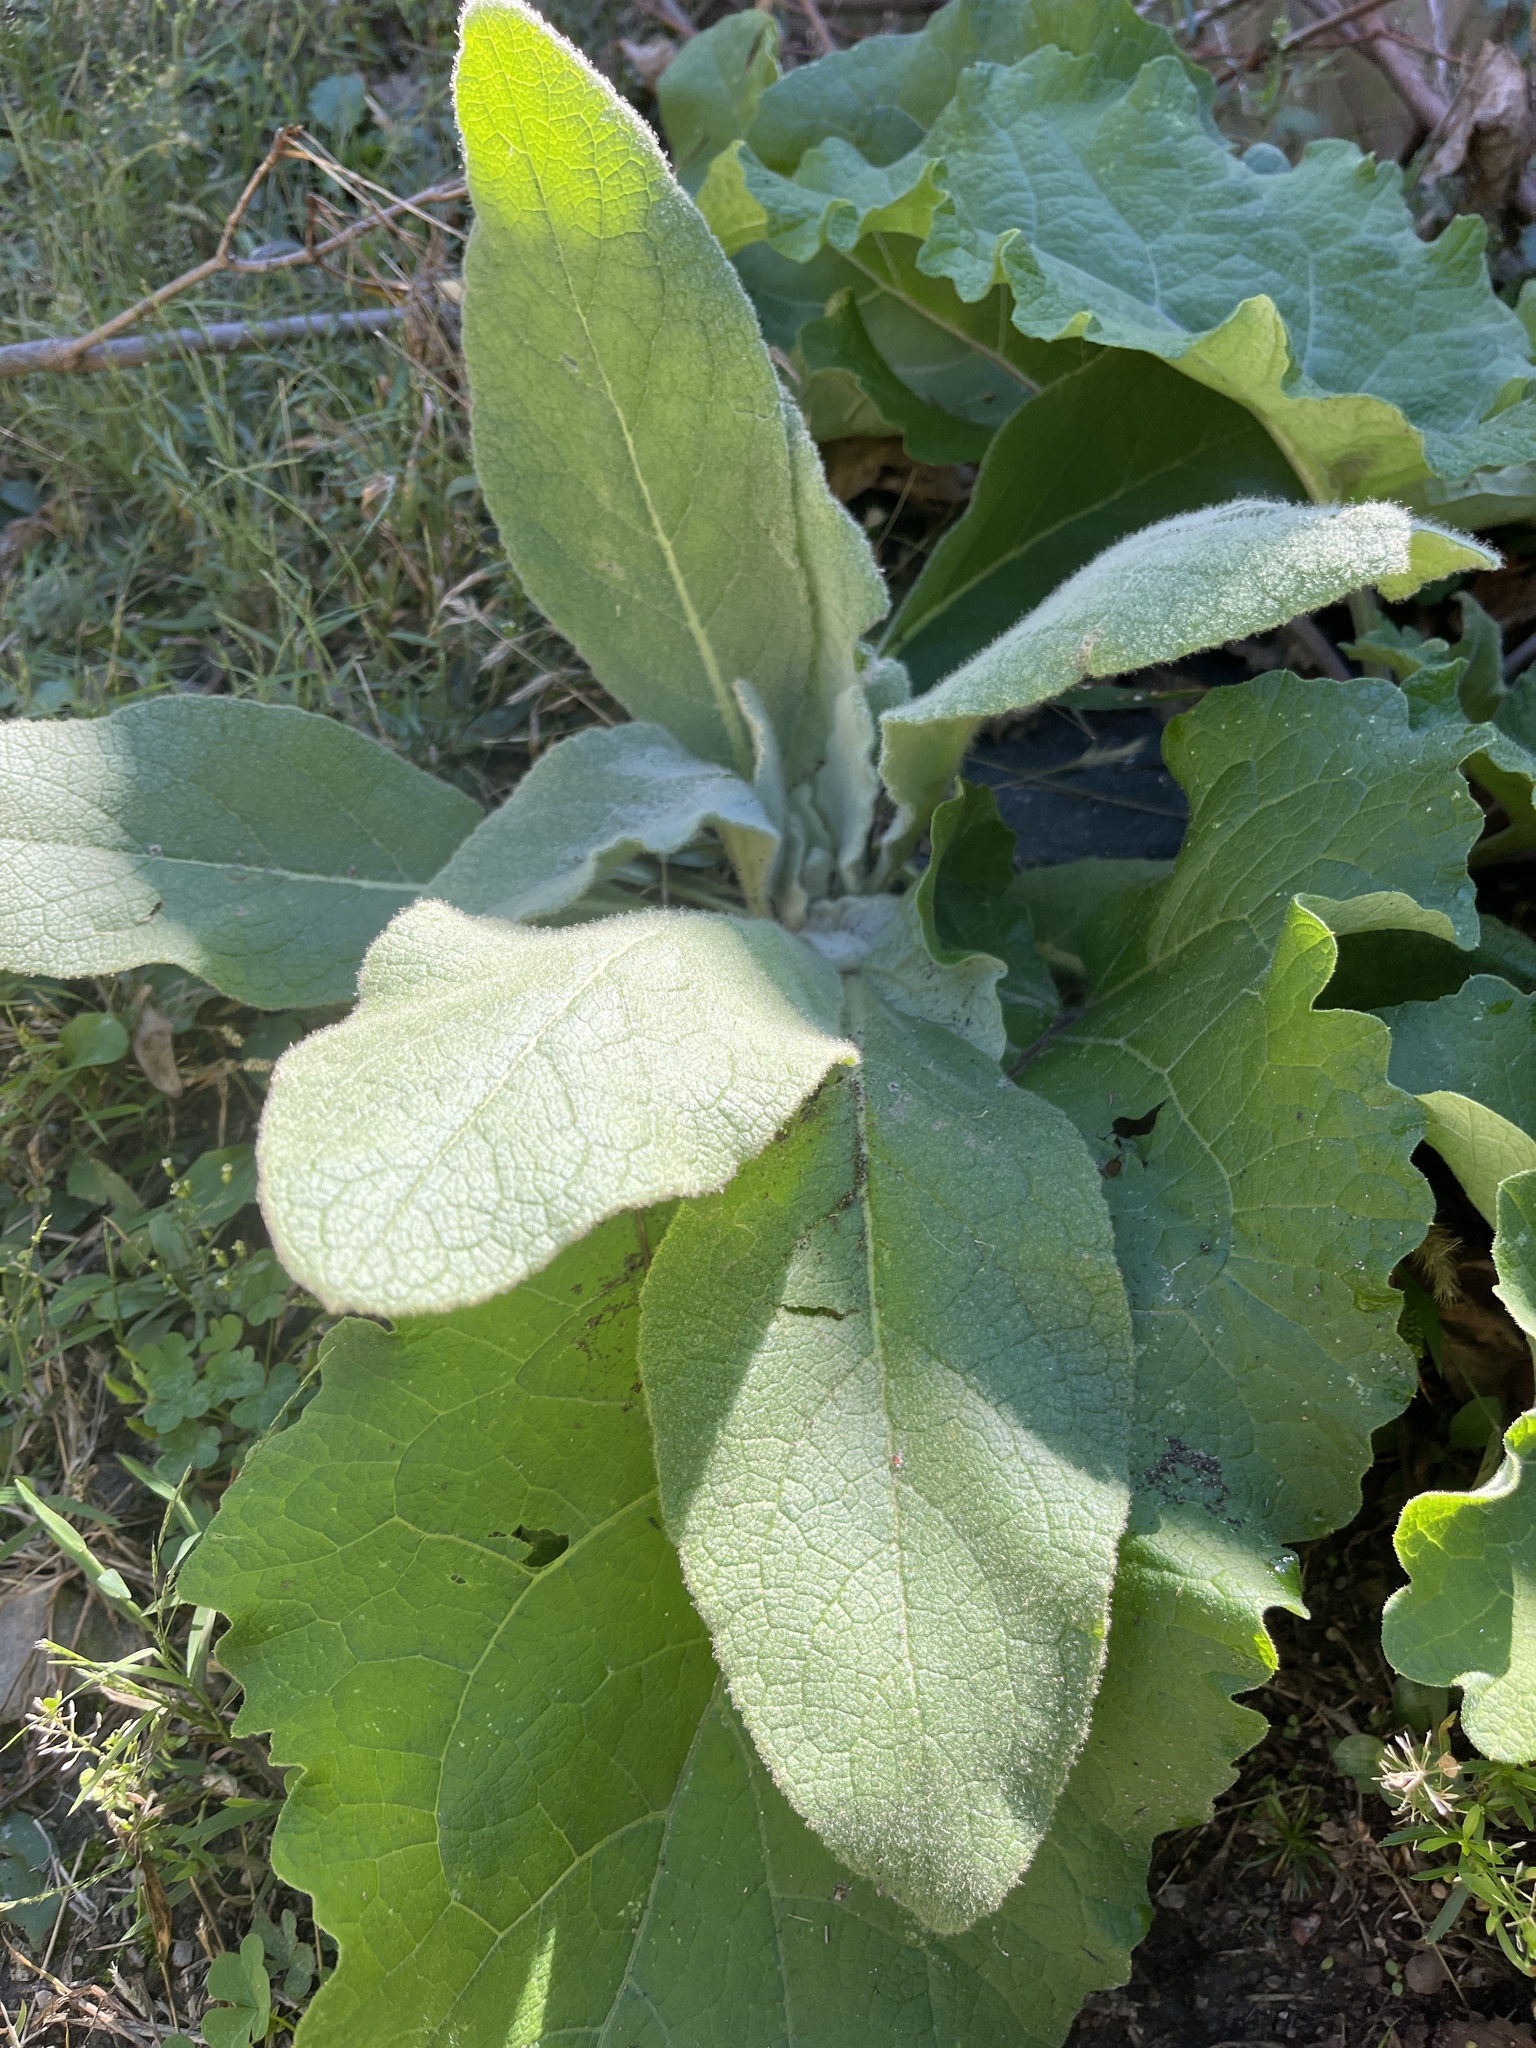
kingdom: Plantae
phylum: Tracheophyta
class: Magnoliopsida
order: Lamiales
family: Scrophulariaceae
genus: Verbascum
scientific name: Verbascum thapsus
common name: Common mullein
